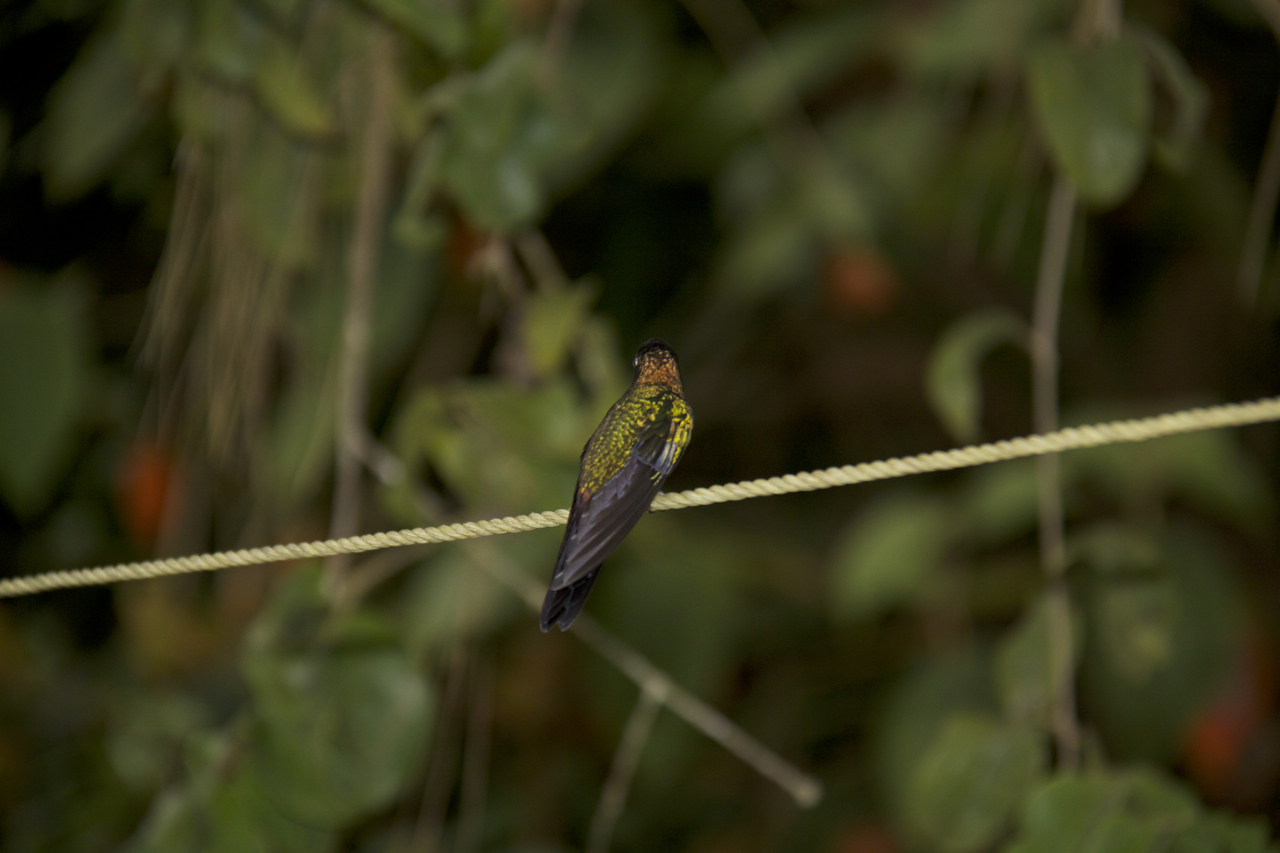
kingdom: Animalia
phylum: Chordata
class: Aves
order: Apodiformes
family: Trochilidae
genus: Heliodoxa
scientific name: Heliodoxa leadbeateri
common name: Violet-fronted brilliant
